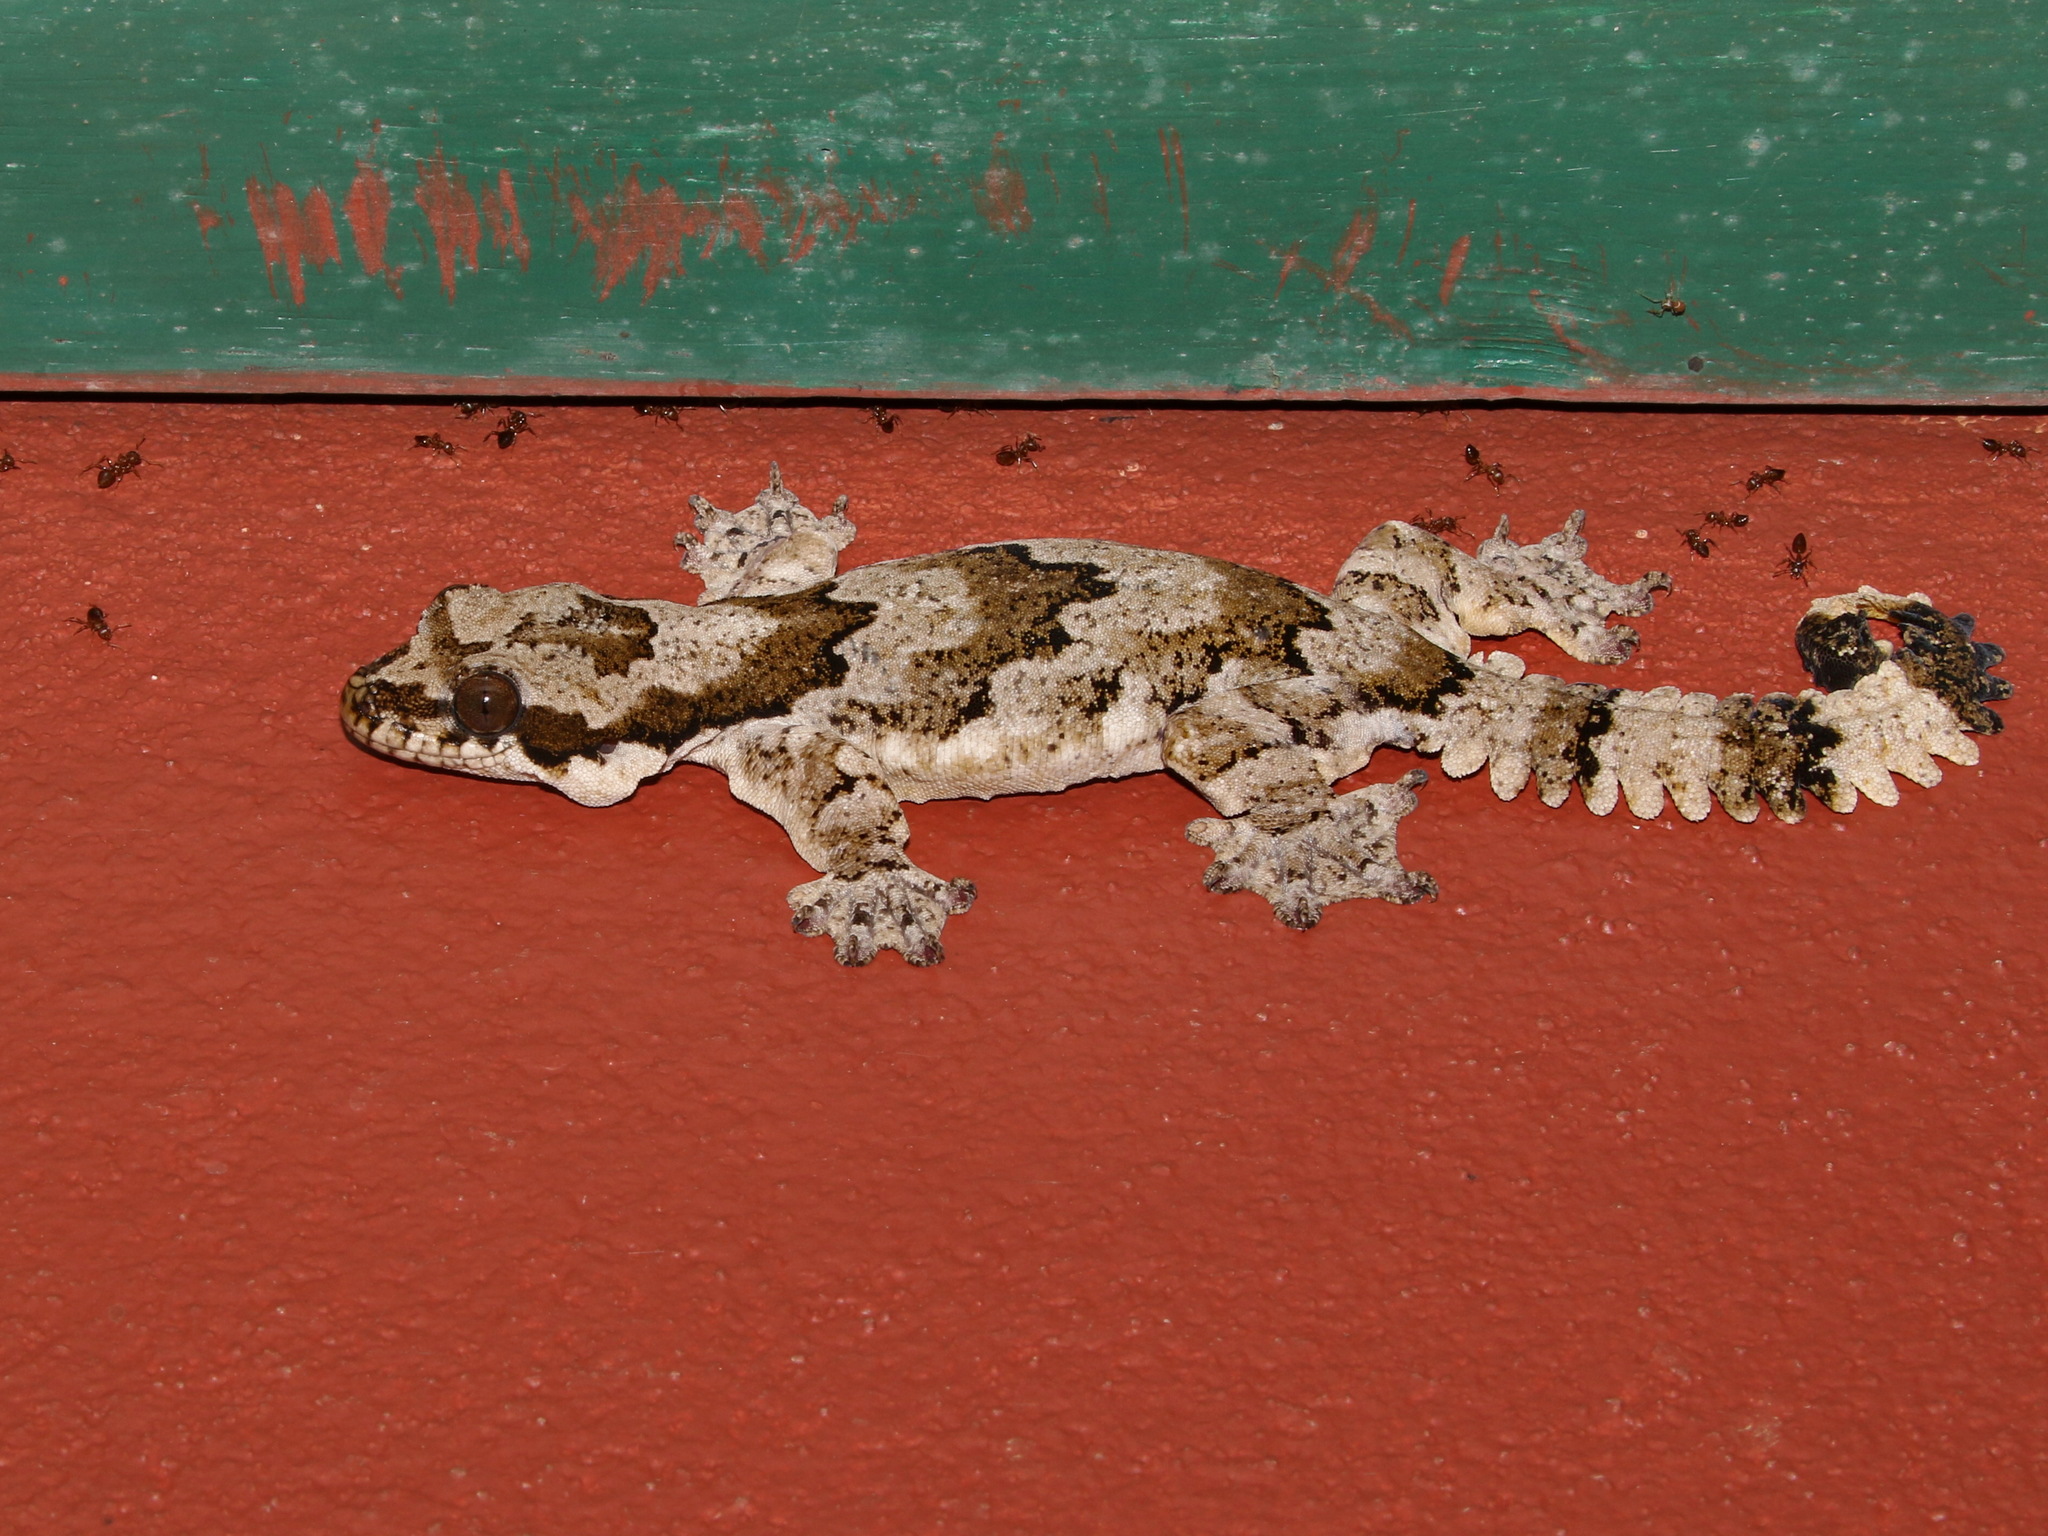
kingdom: Animalia
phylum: Chordata
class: Squamata
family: Gekkonidae
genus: Gekko
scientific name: Gekko kaengkrachanense
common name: Kaeng krachan parachute gecko
